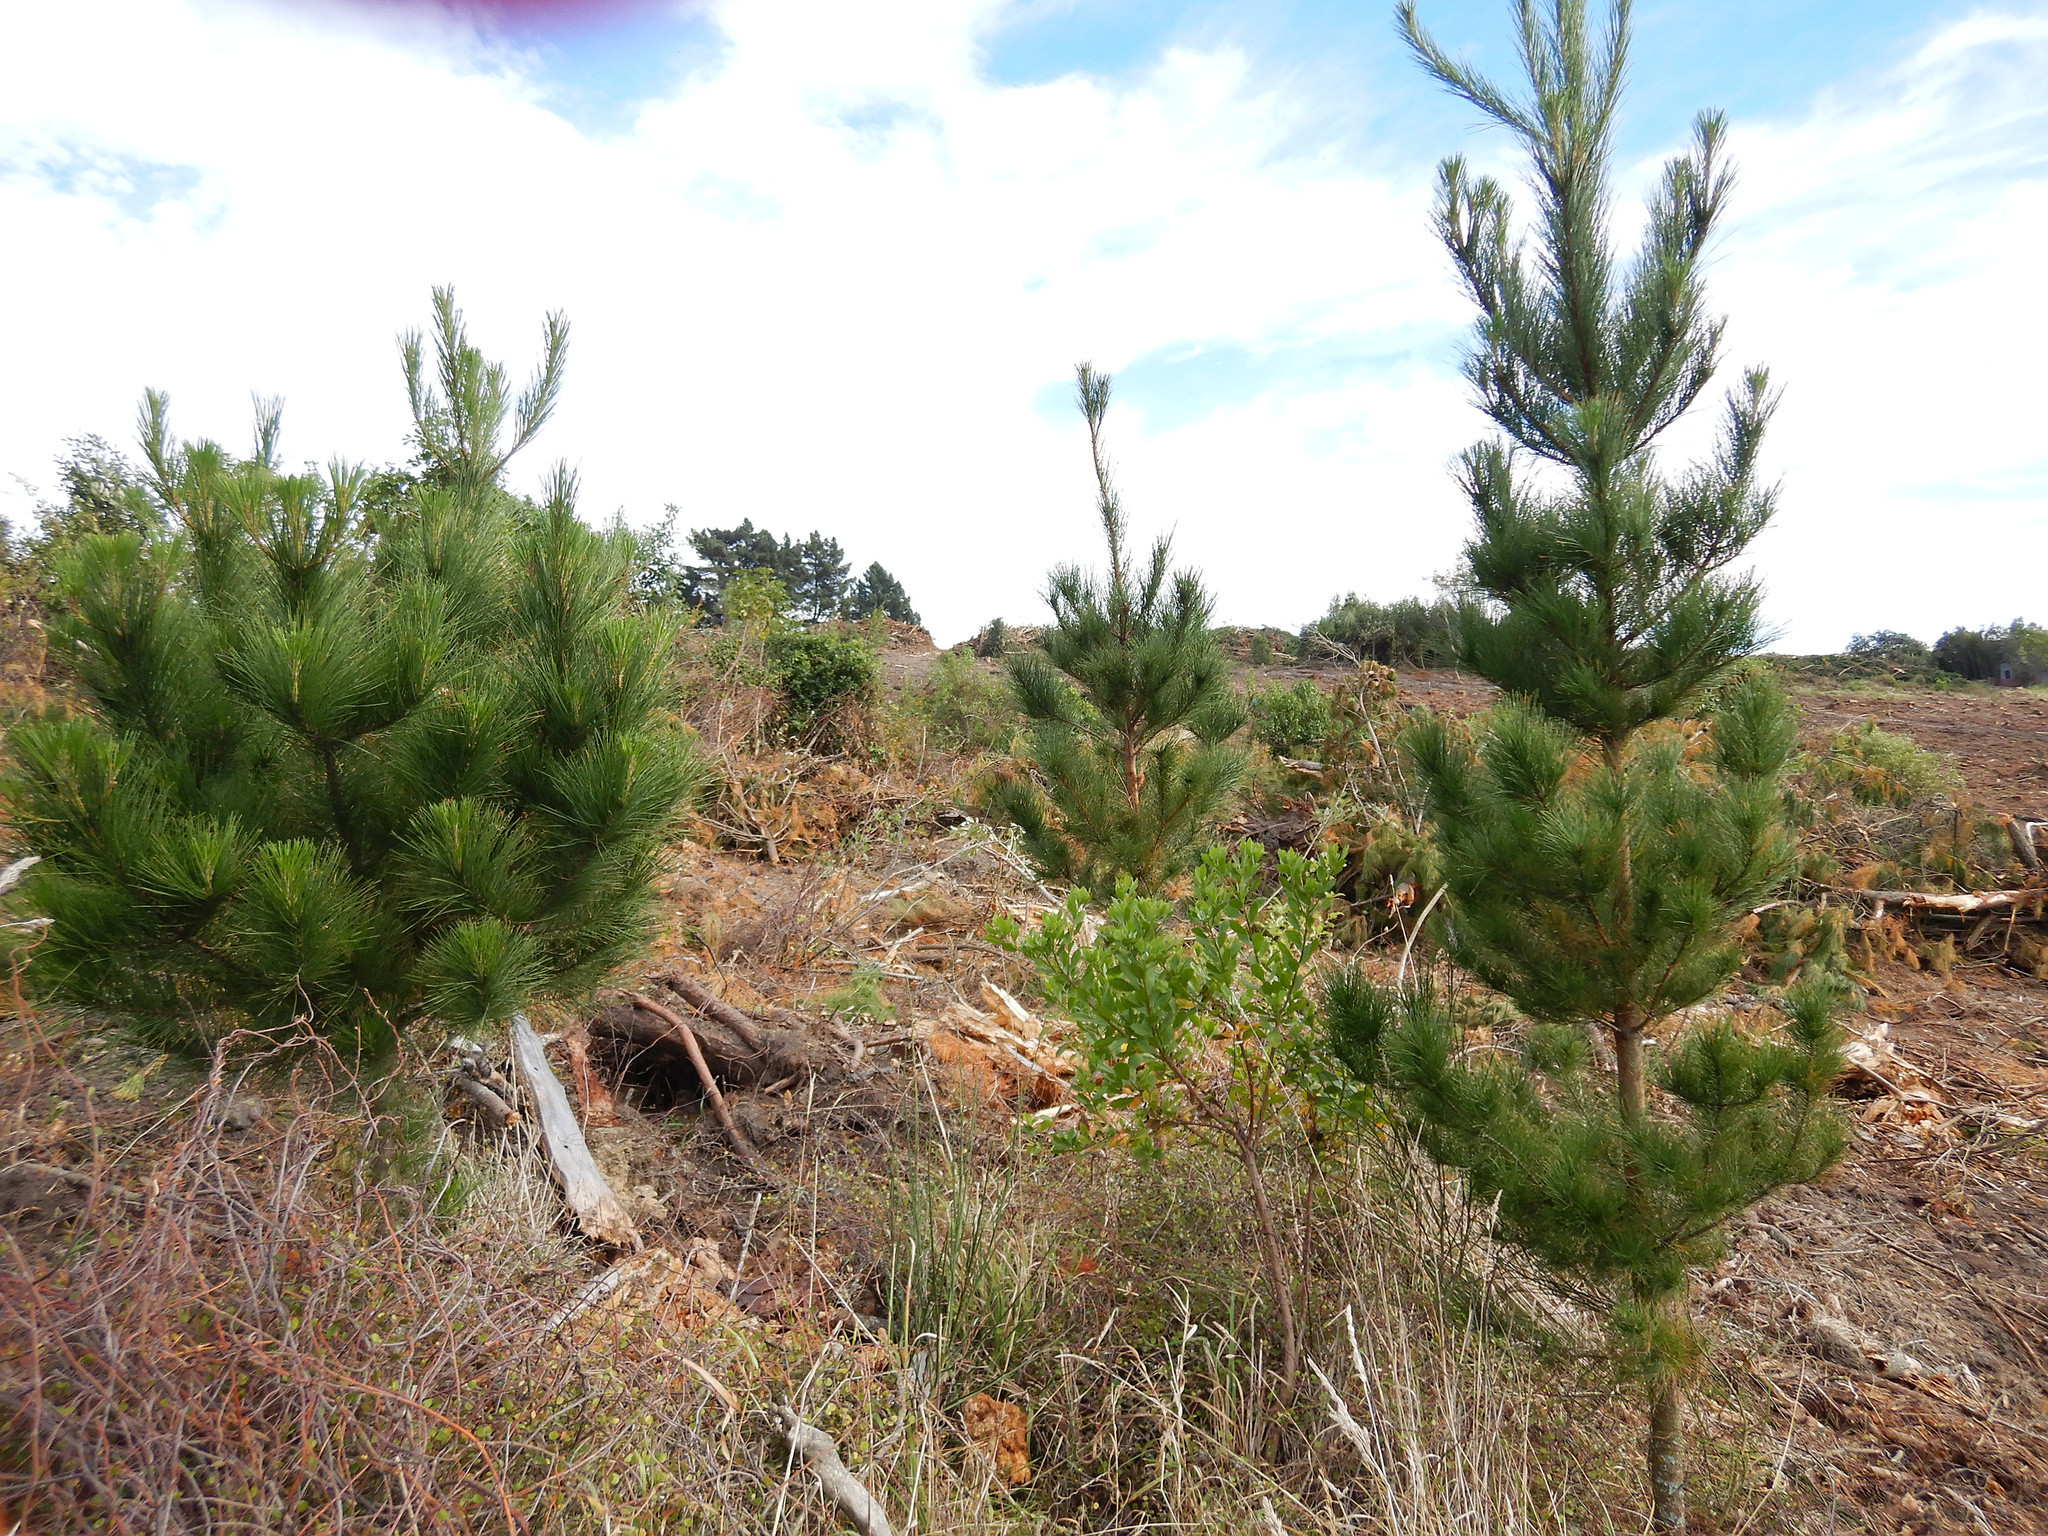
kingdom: Plantae
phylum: Tracheophyta
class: Pinopsida
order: Pinales
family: Pinaceae
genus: Pinus
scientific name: Pinus radiata
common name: Monterey pine
